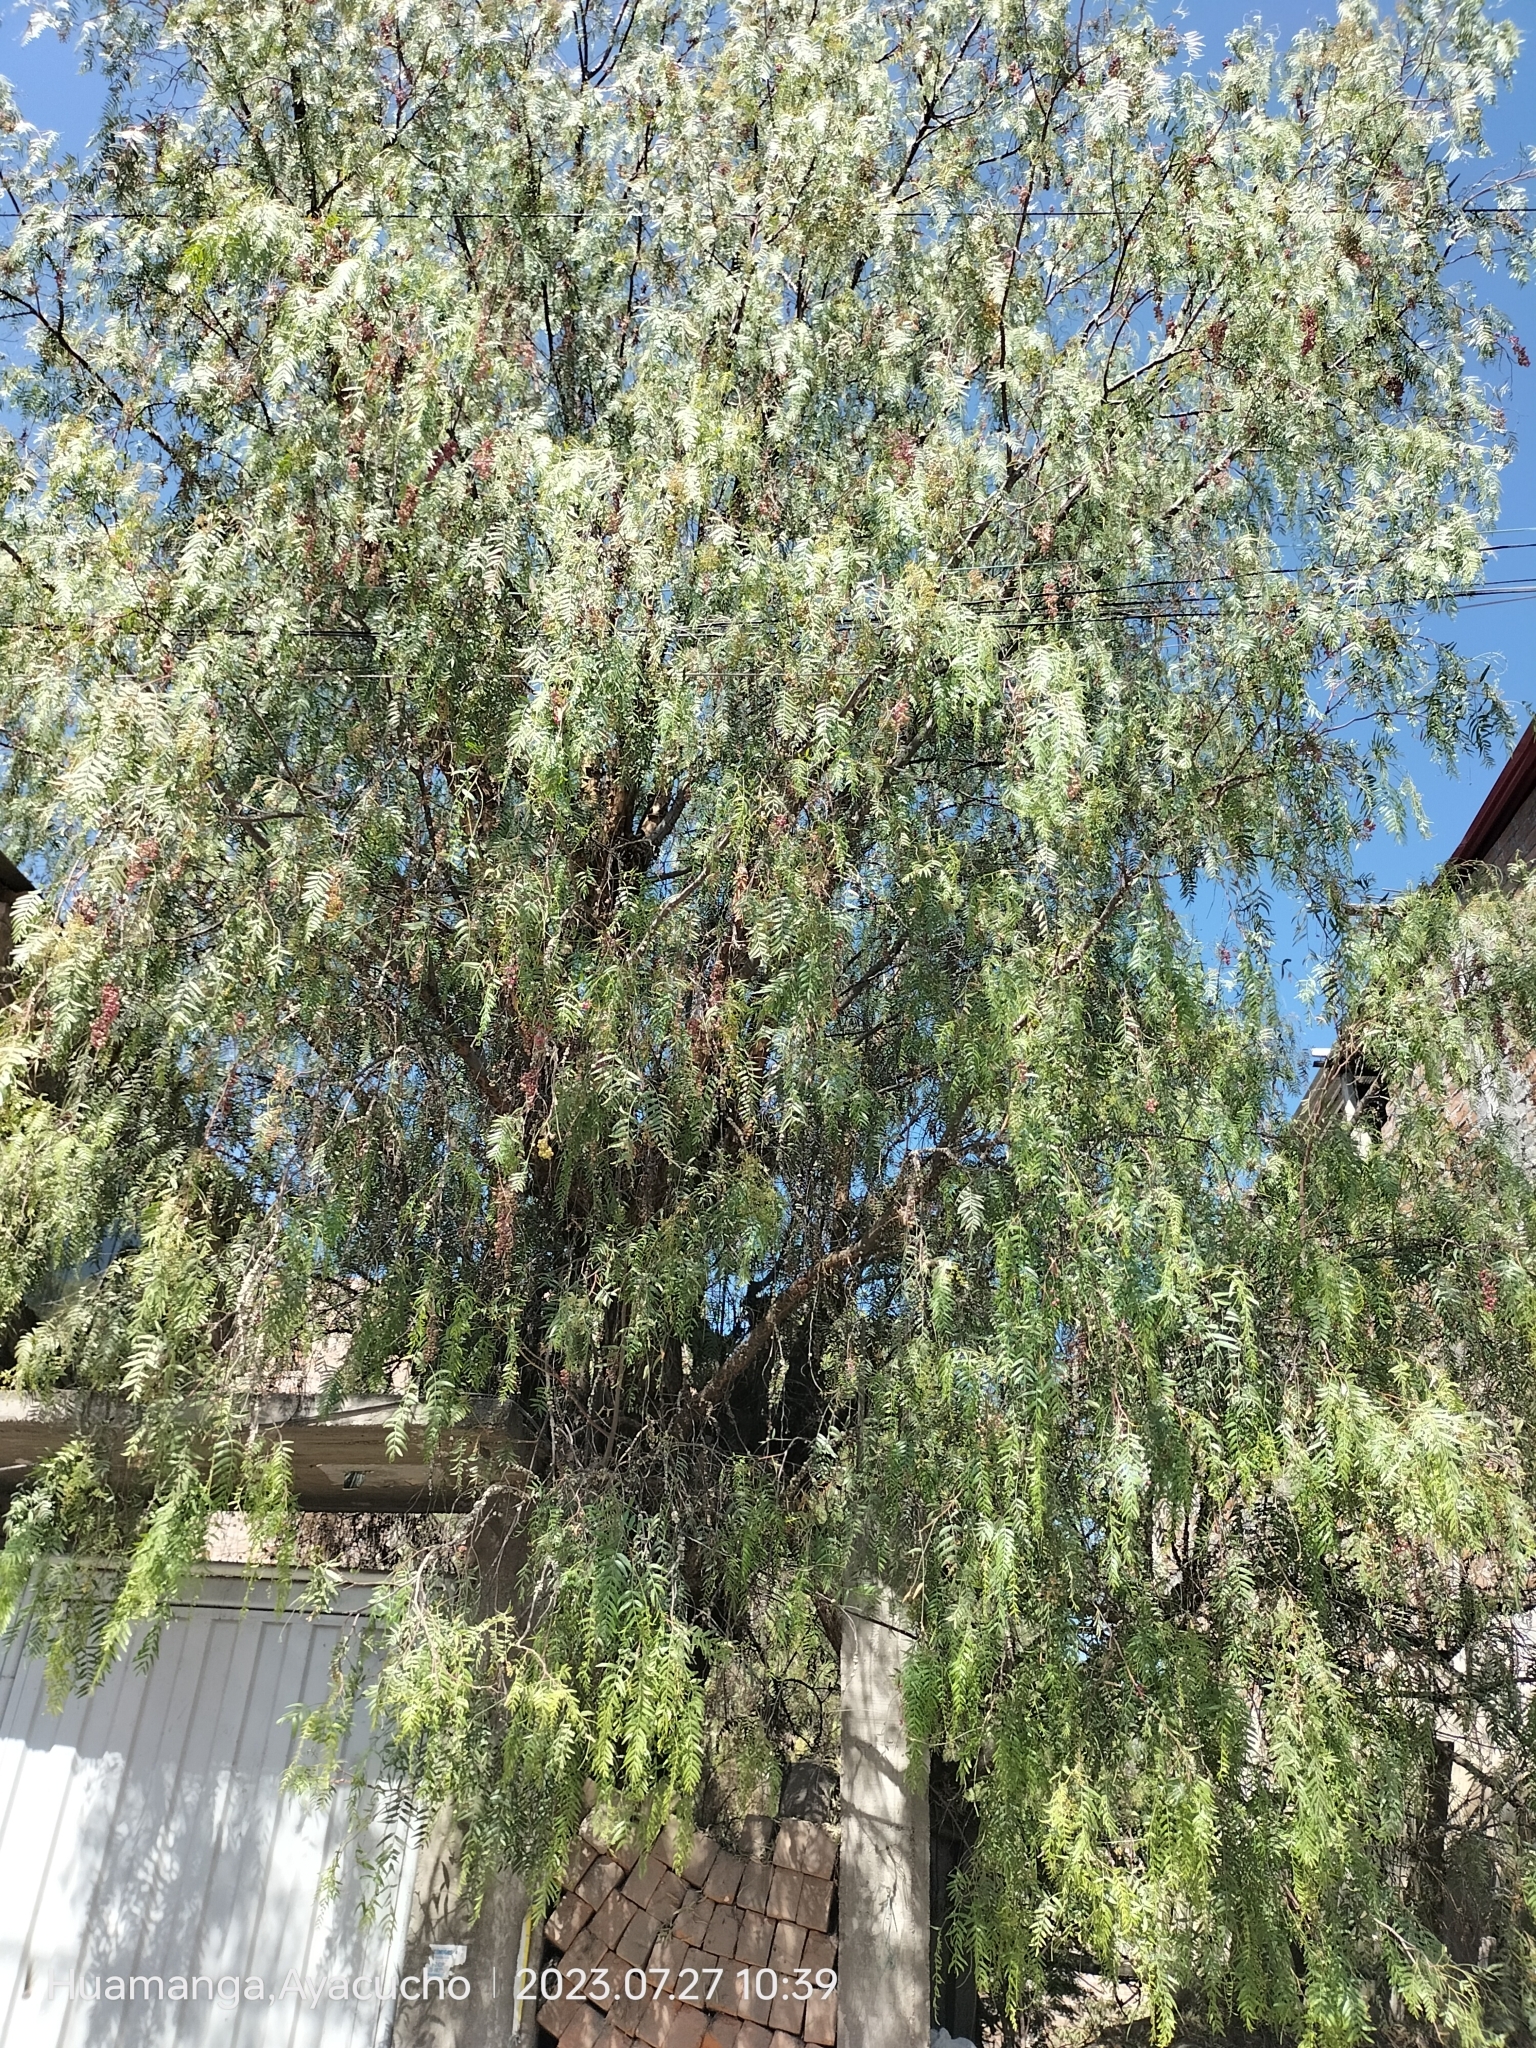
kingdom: Plantae
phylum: Tracheophyta
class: Magnoliopsida
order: Sapindales
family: Anacardiaceae
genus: Schinus
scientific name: Schinus molle
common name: Peruvian peppertree
